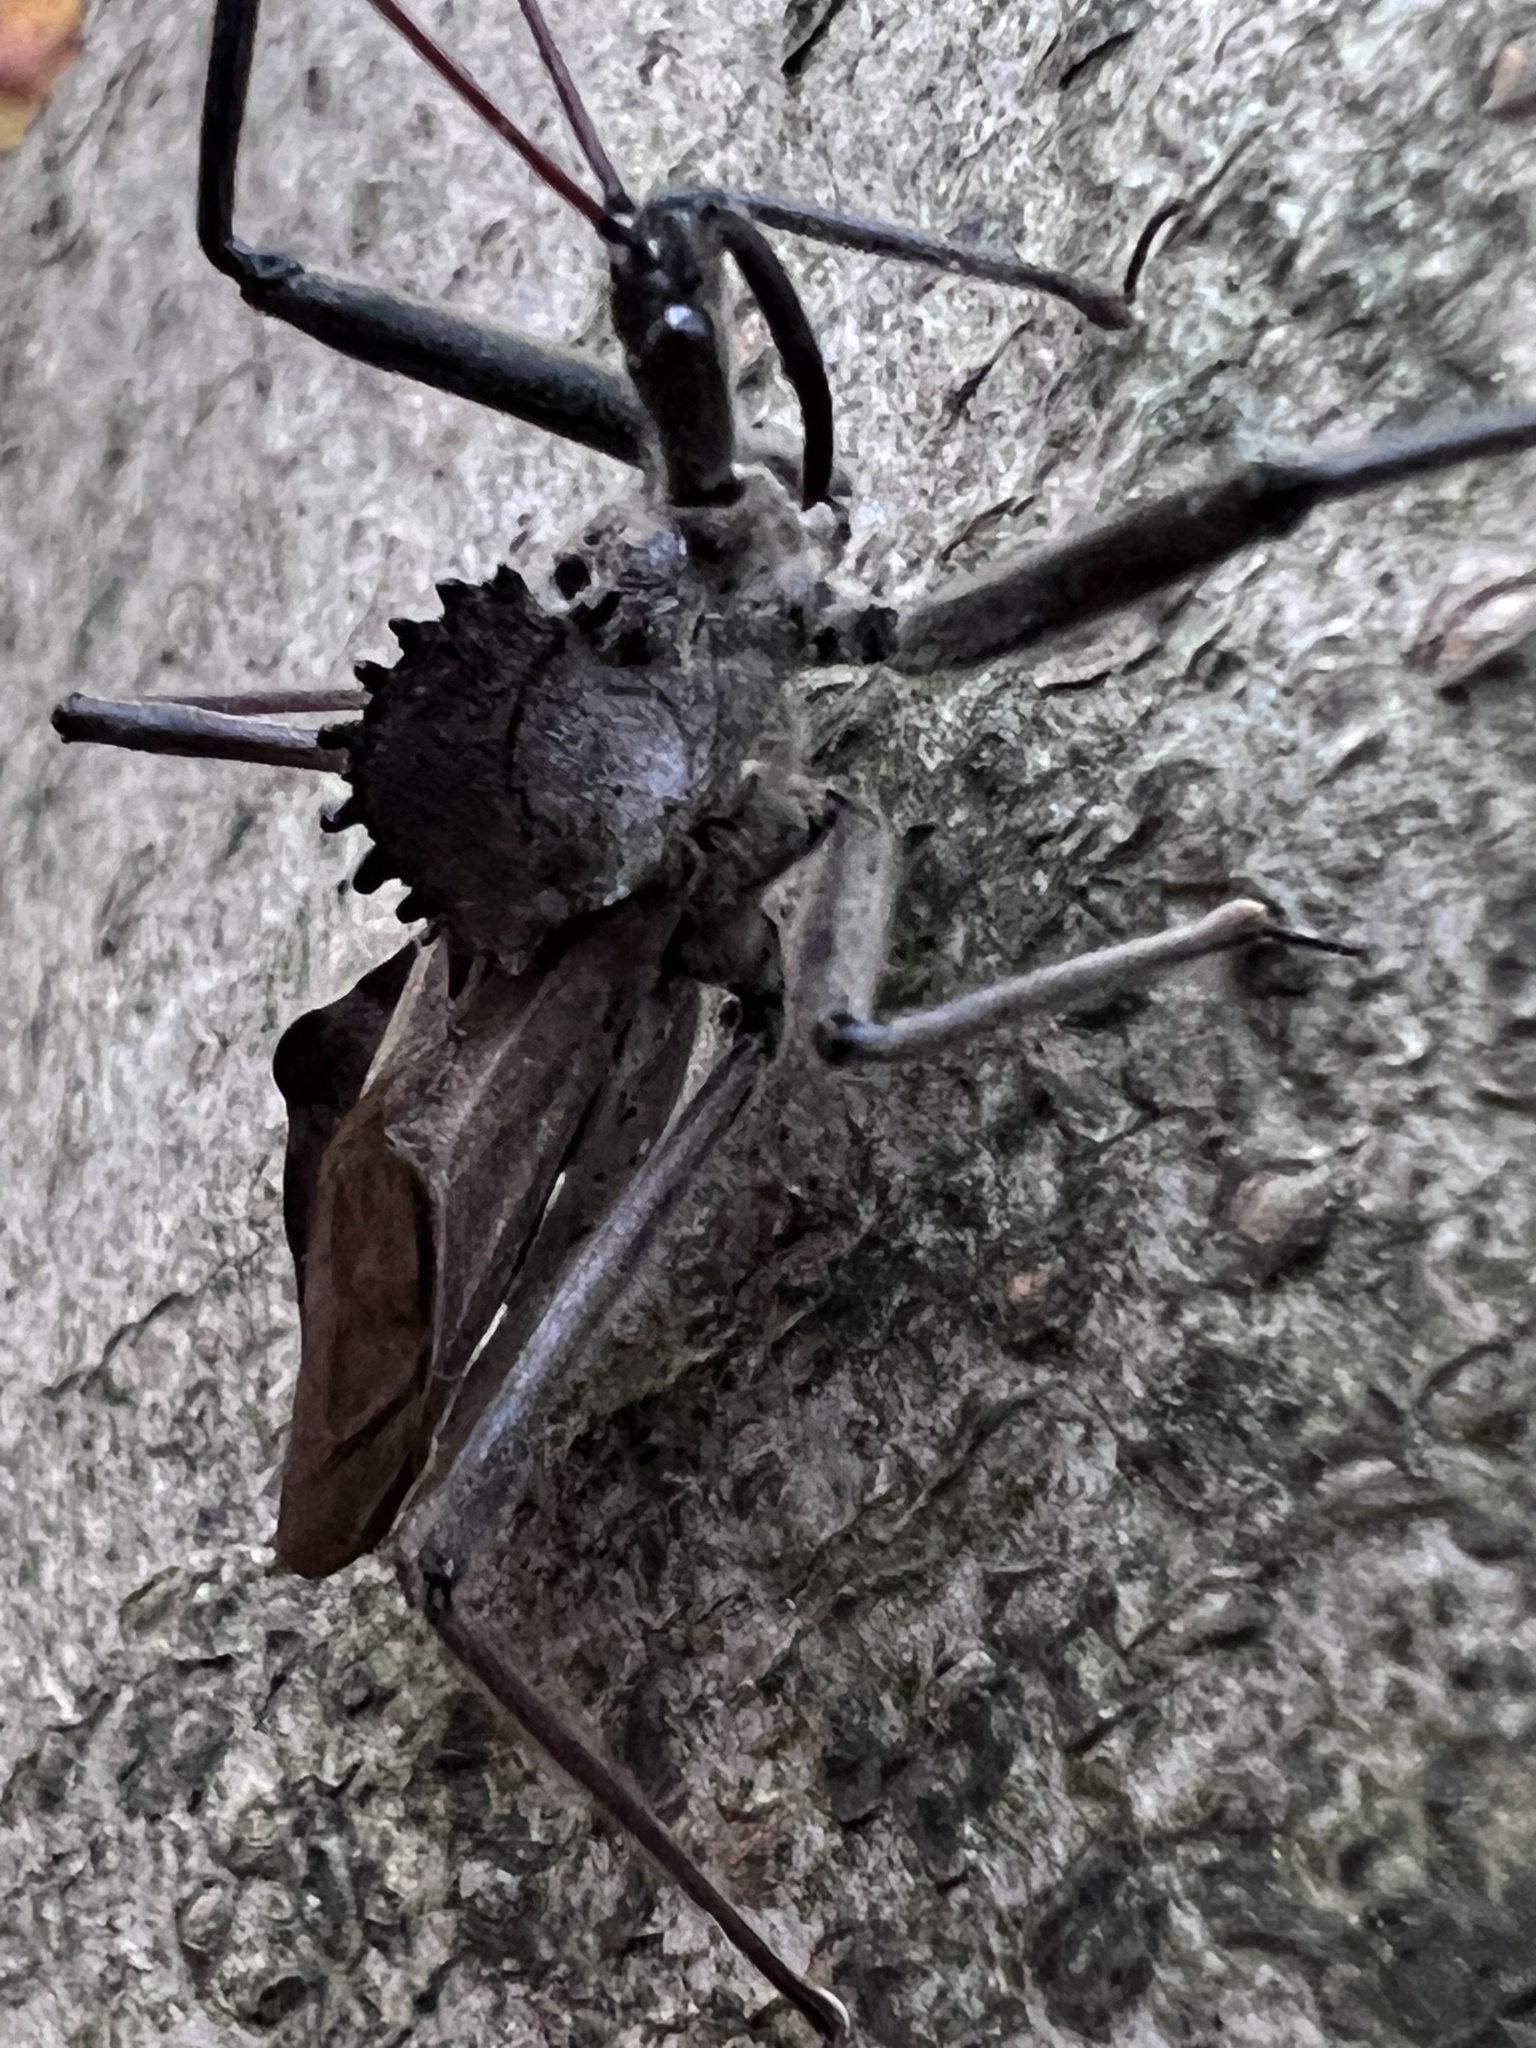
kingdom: Animalia
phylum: Arthropoda
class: Insecta
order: Hemiptera
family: Reduviidae
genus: Arilus
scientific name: Arilus cristatus
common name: North american wheel bug
